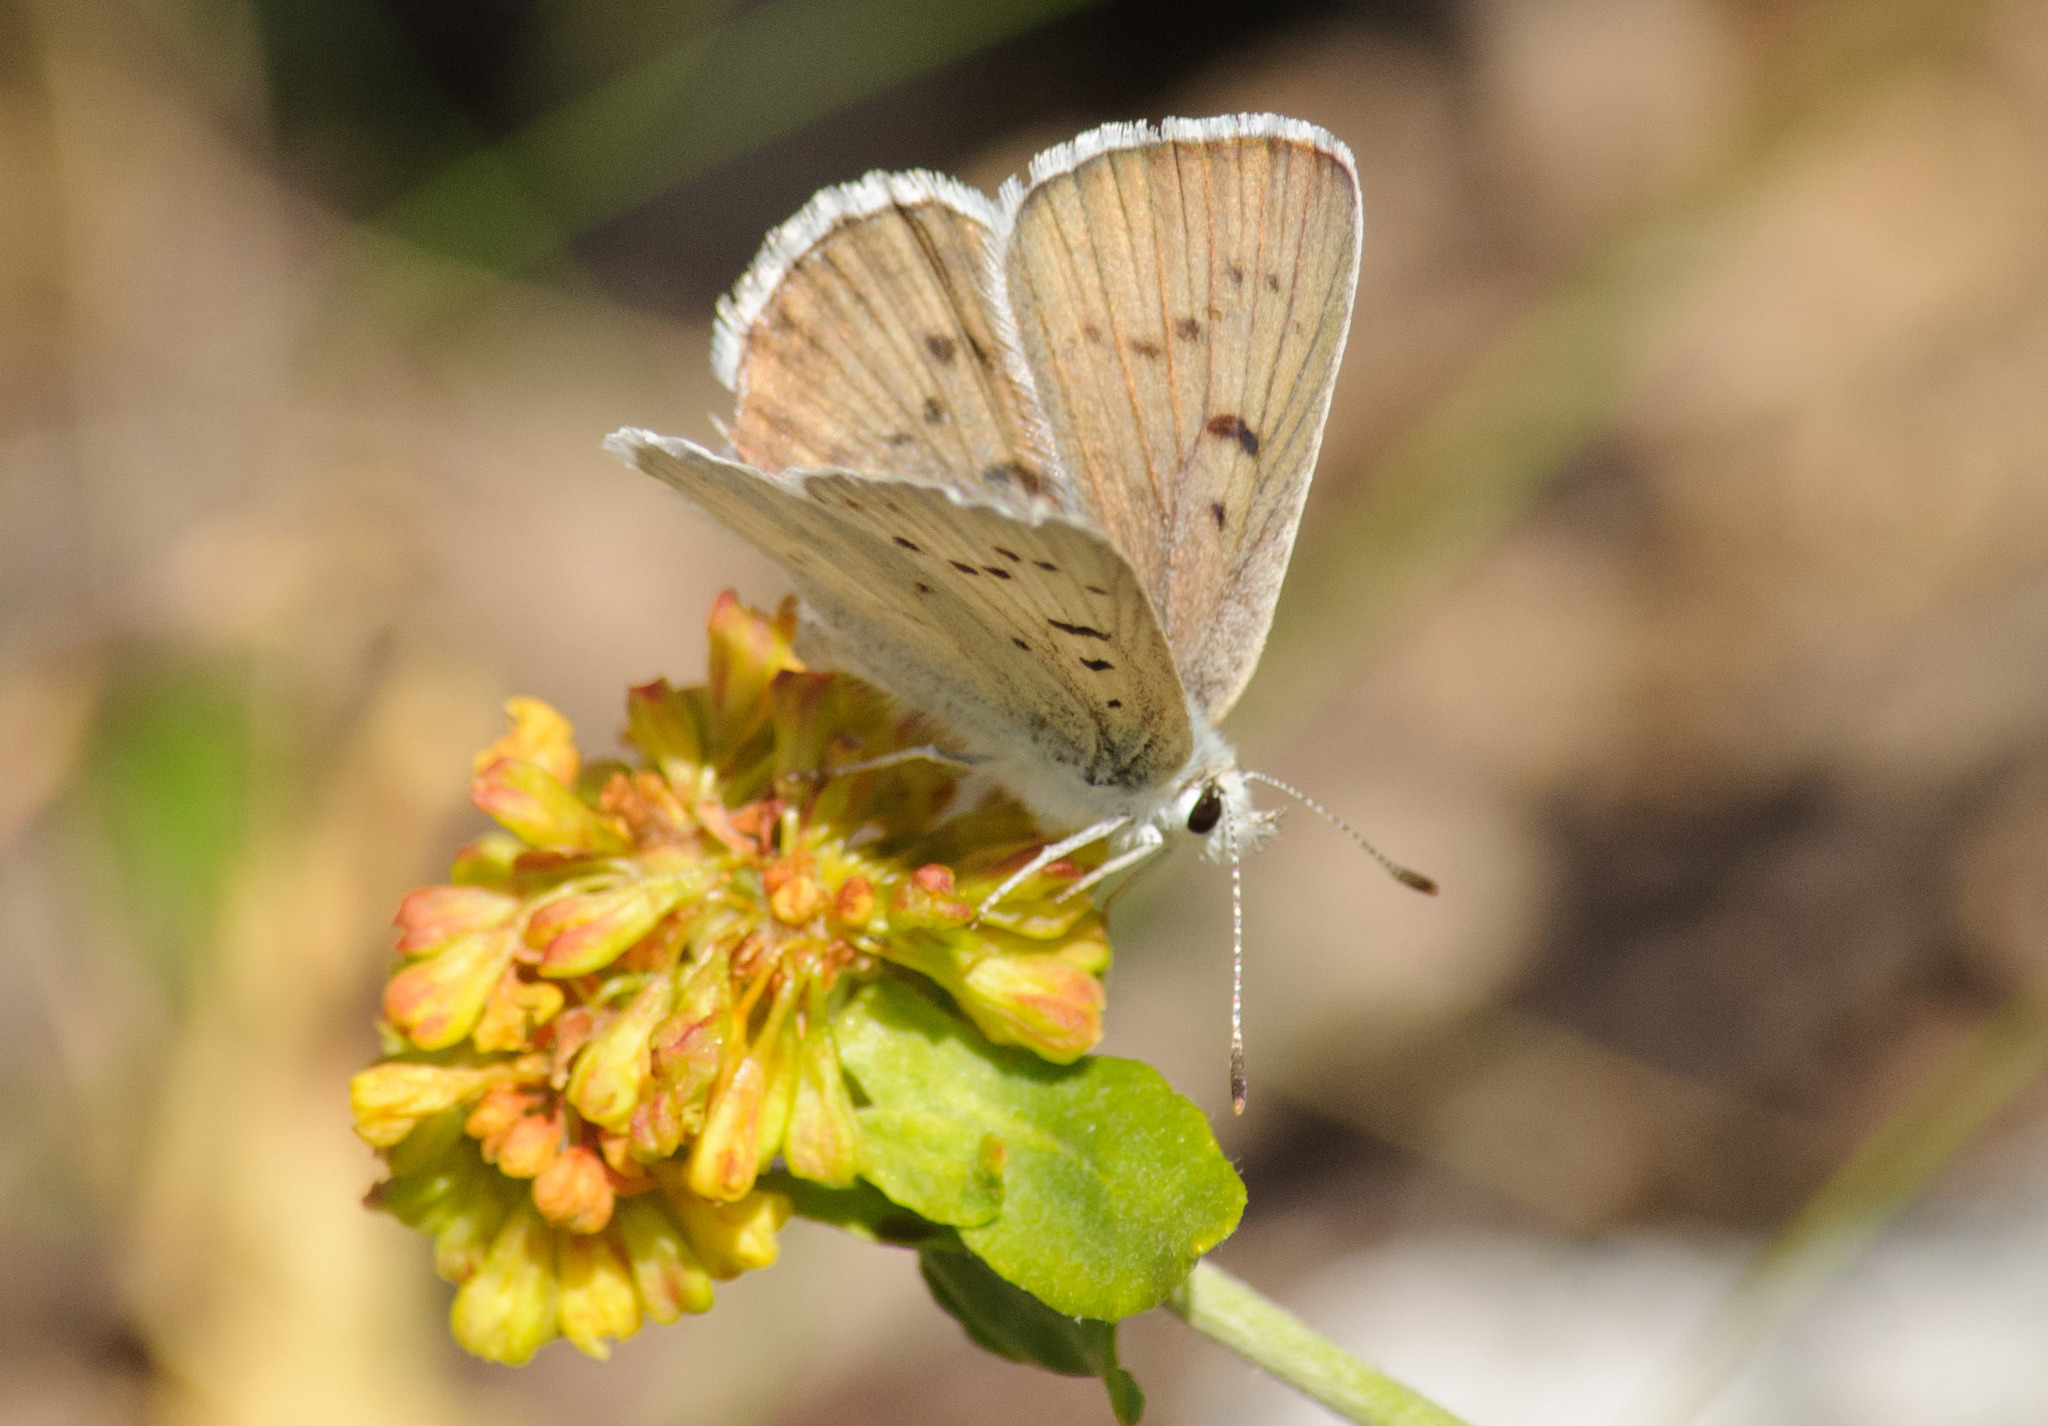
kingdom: Animalia
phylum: Arthropoda
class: Insecta
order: Lepidoptera
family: Lycaenidae
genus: Tharsalea
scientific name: Tharsalea heteronea
